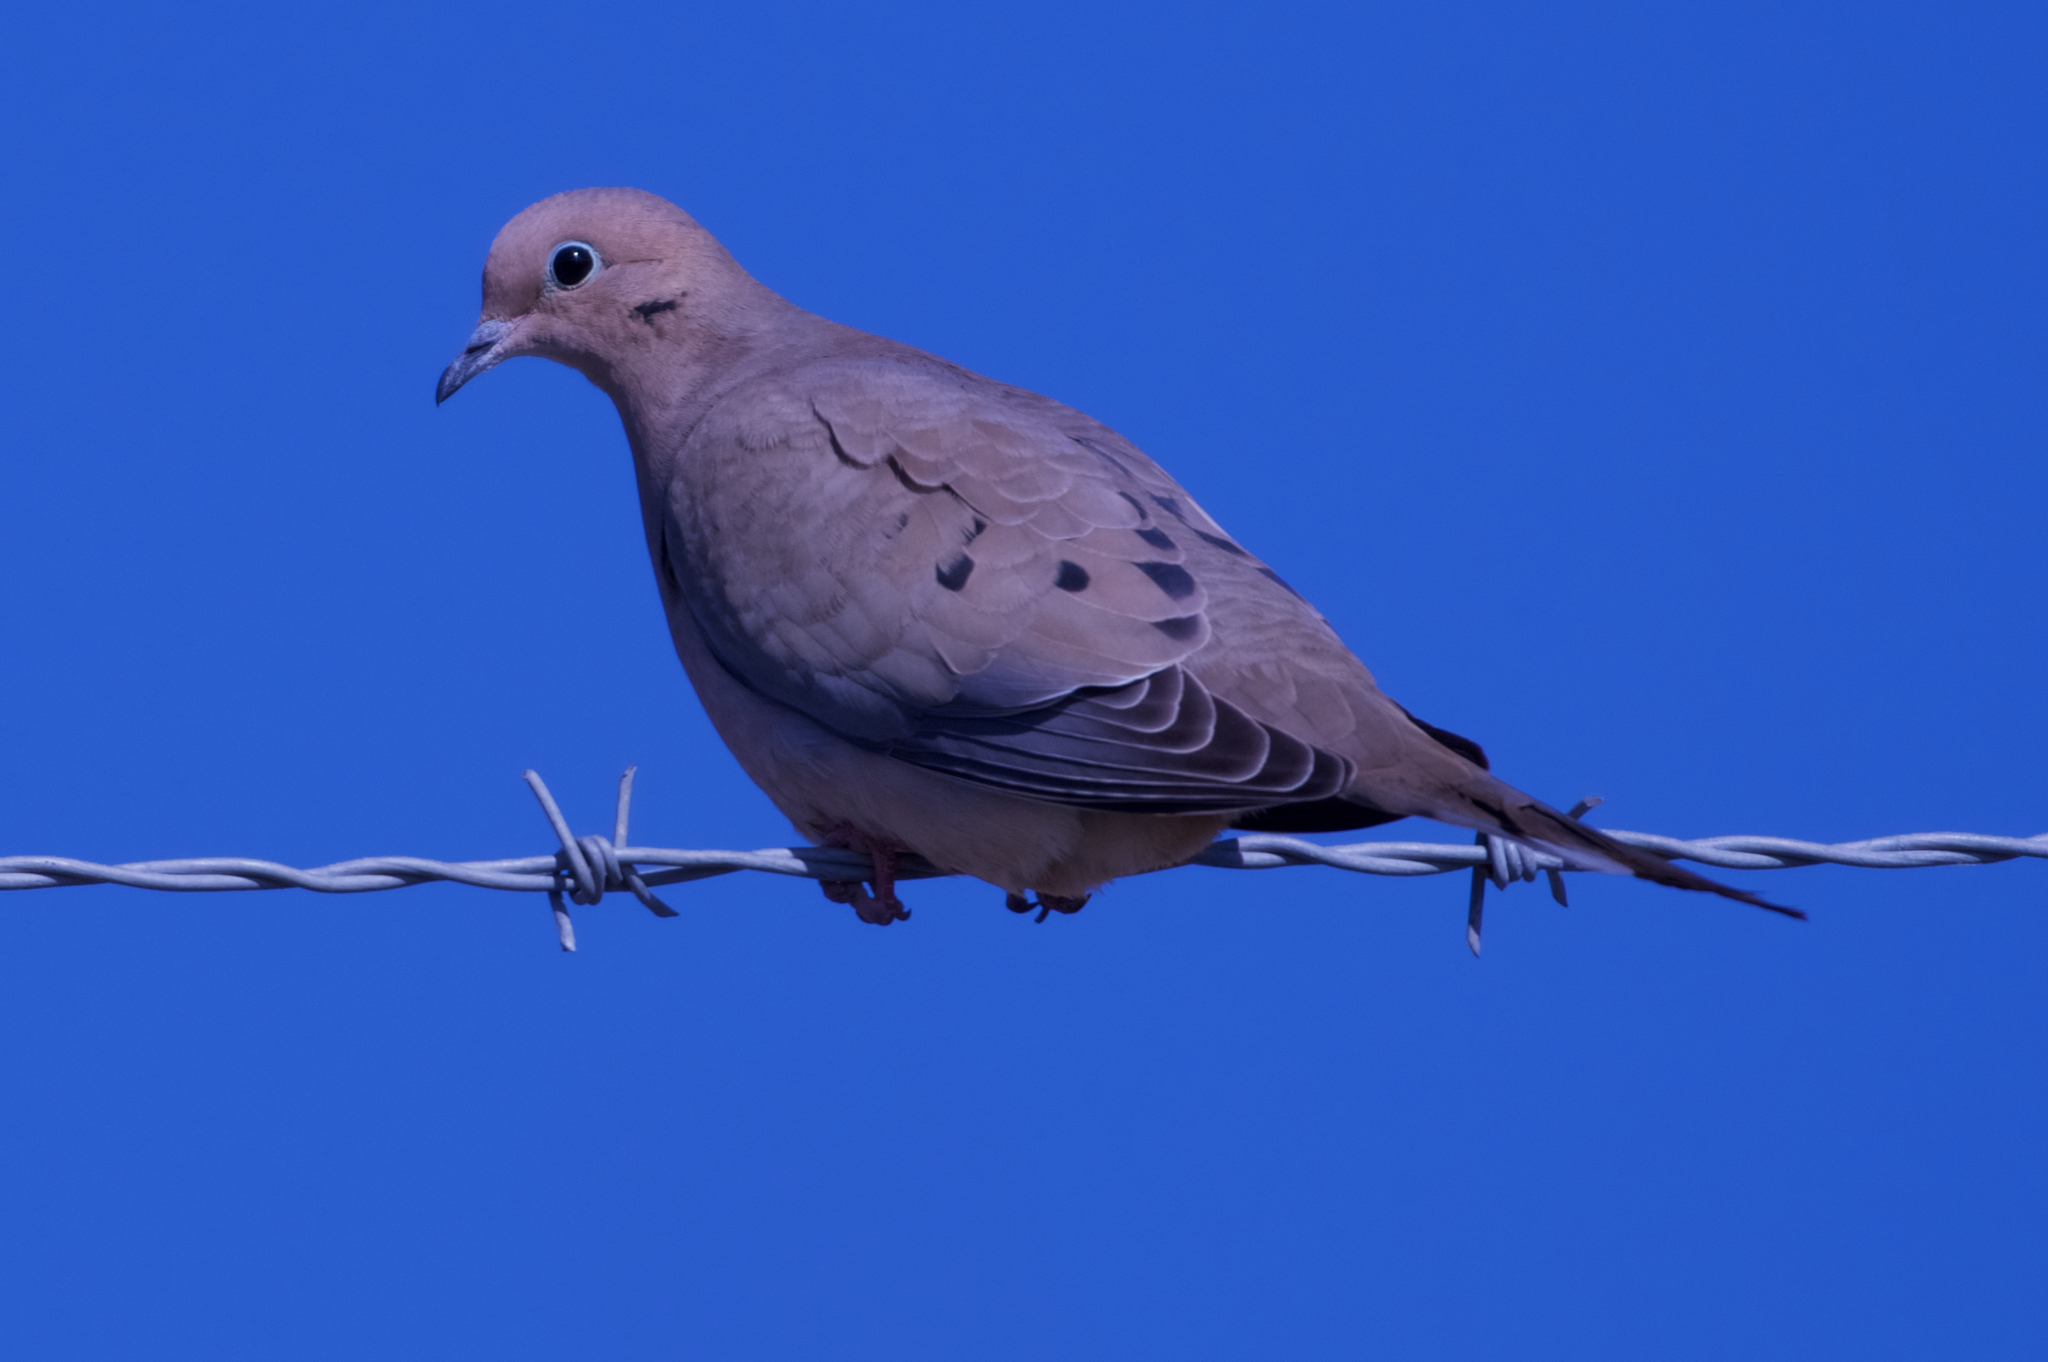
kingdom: Animalia
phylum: Chordata
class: Aves
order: Columbiformes
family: Columbidae
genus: Zenaida
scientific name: Zenaida macroura
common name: Mourning dove
